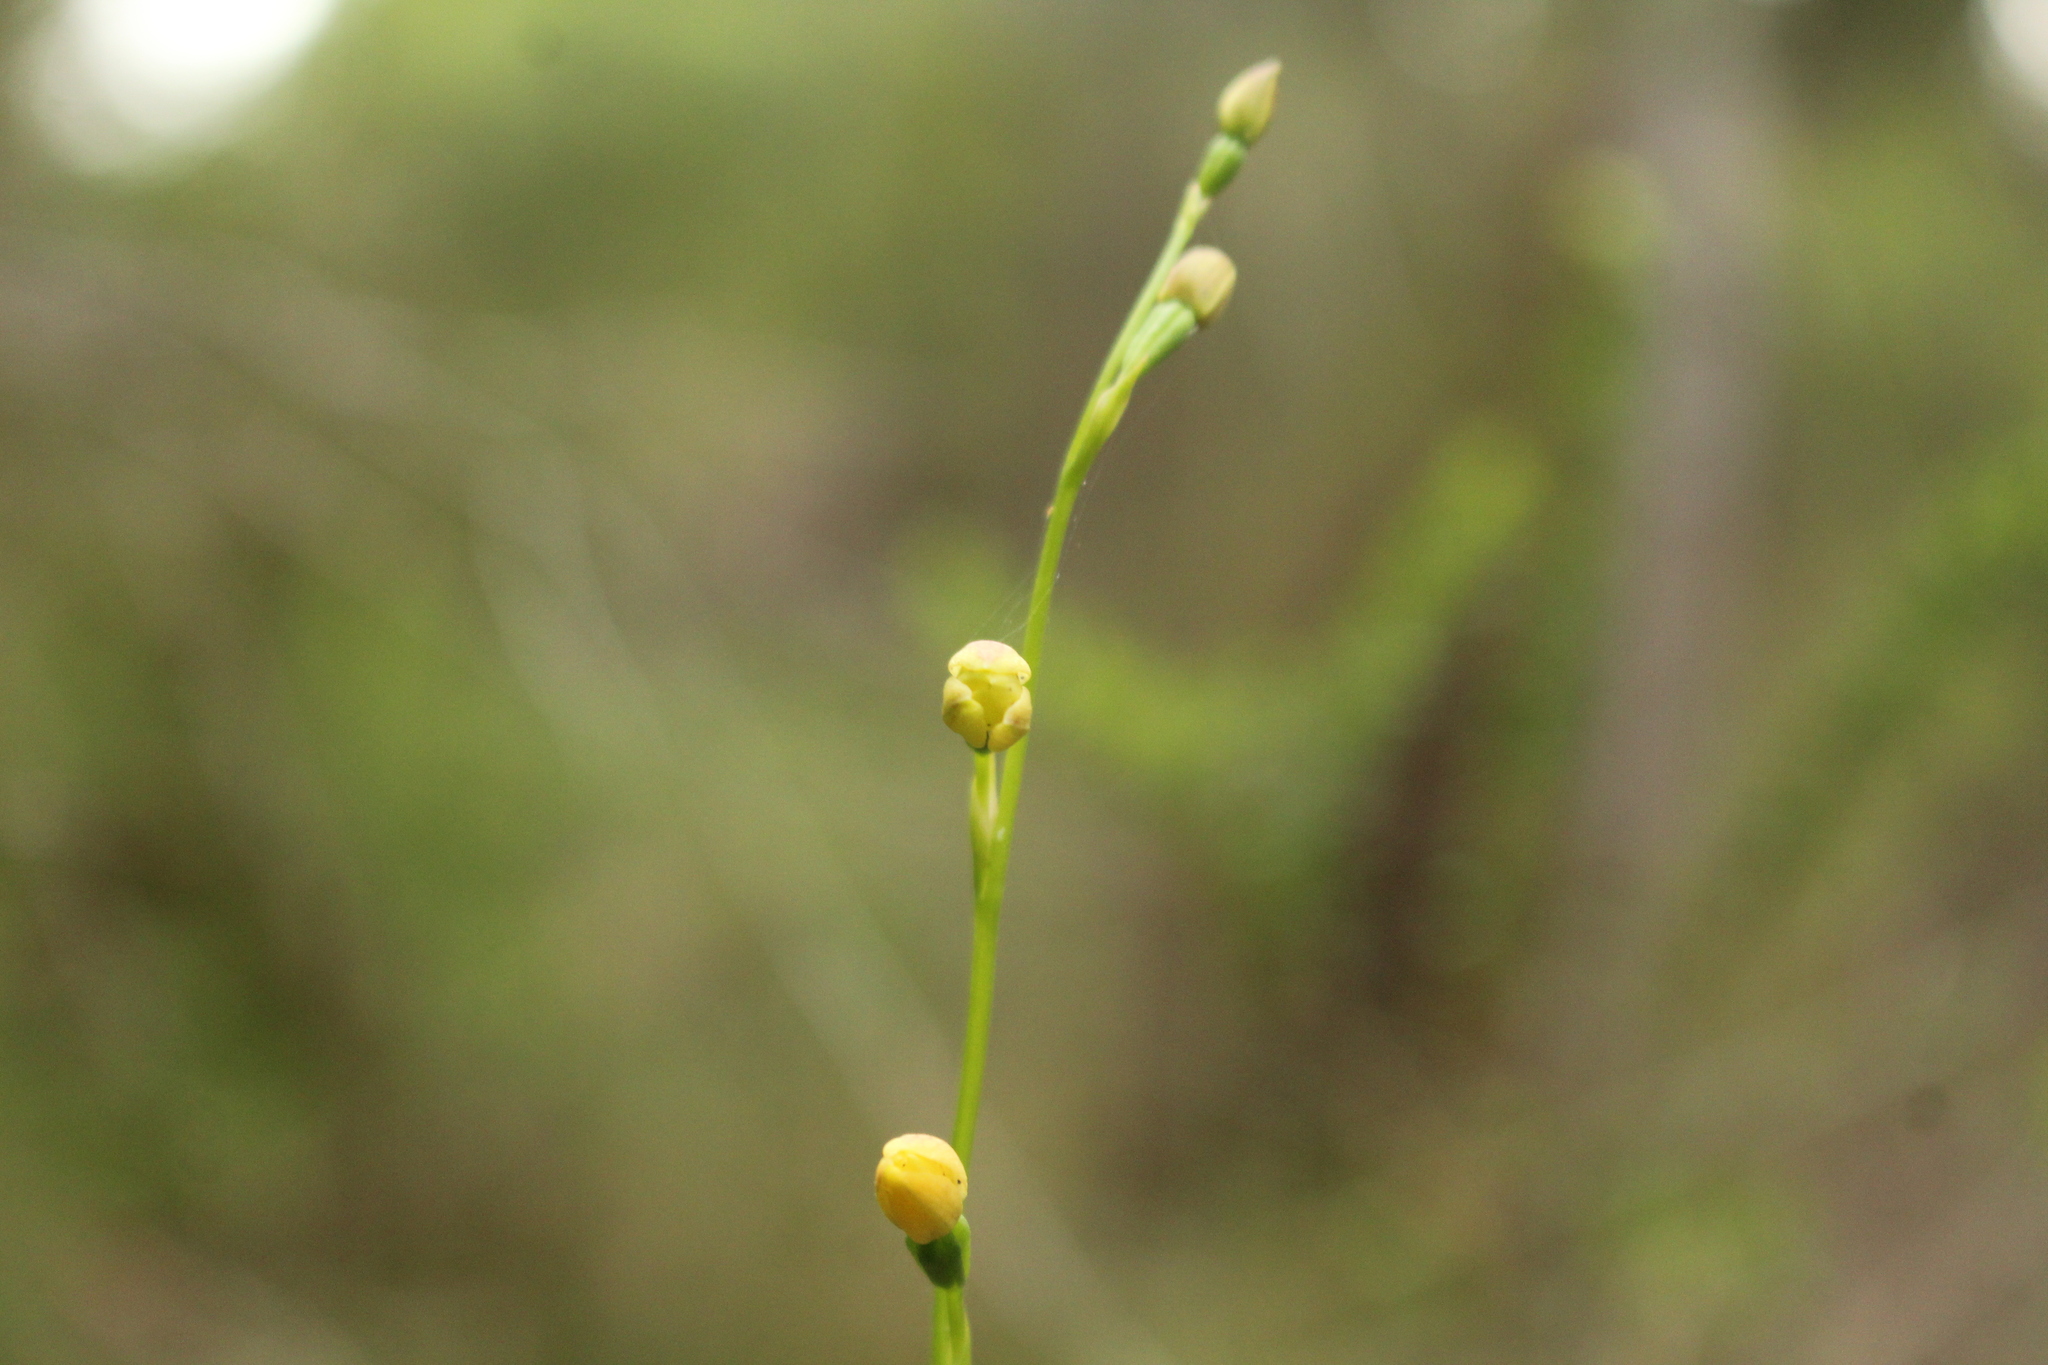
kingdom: Plantae
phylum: Tracheophyta
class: Liliopsida
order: Asparagales
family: Orchidaceae
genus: Thelymitra
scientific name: Thelymitra tigrina
